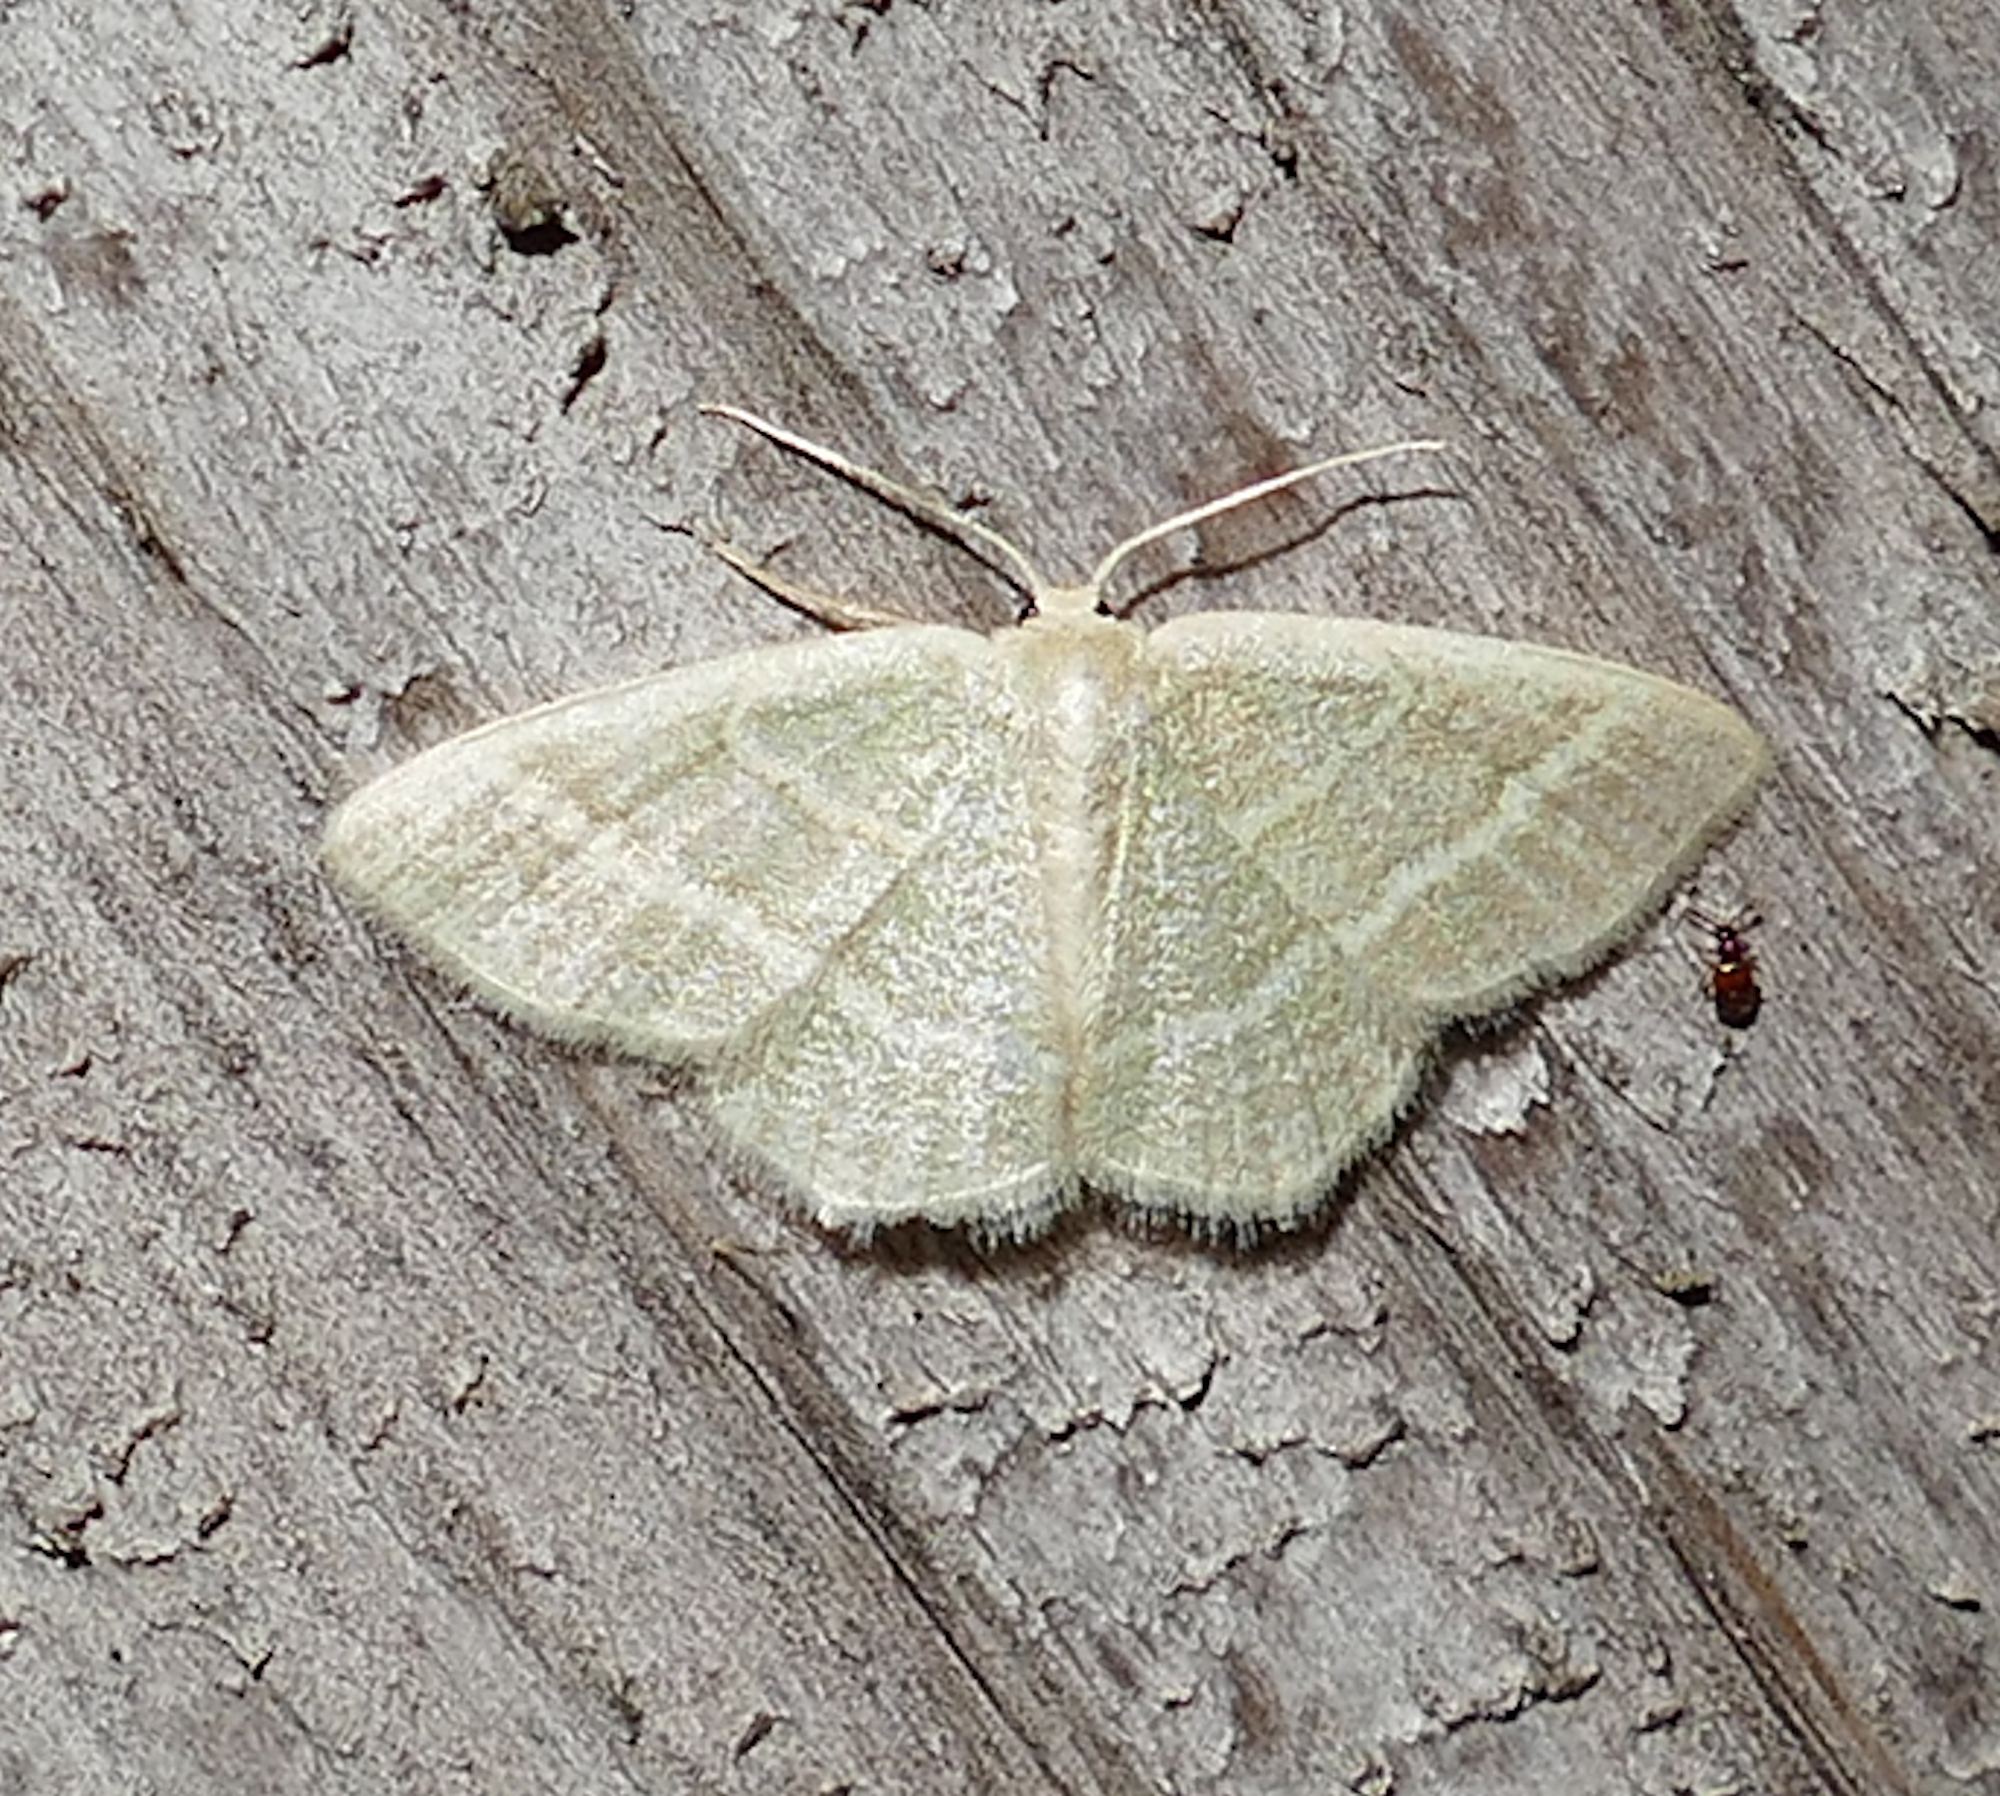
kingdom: Animalia
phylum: Arthropoda
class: Insecta
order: Lepidoptera
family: Geometridae
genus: Chlorochlamys
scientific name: Chlorochlamys chloroleucaria
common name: Blackberry looper
